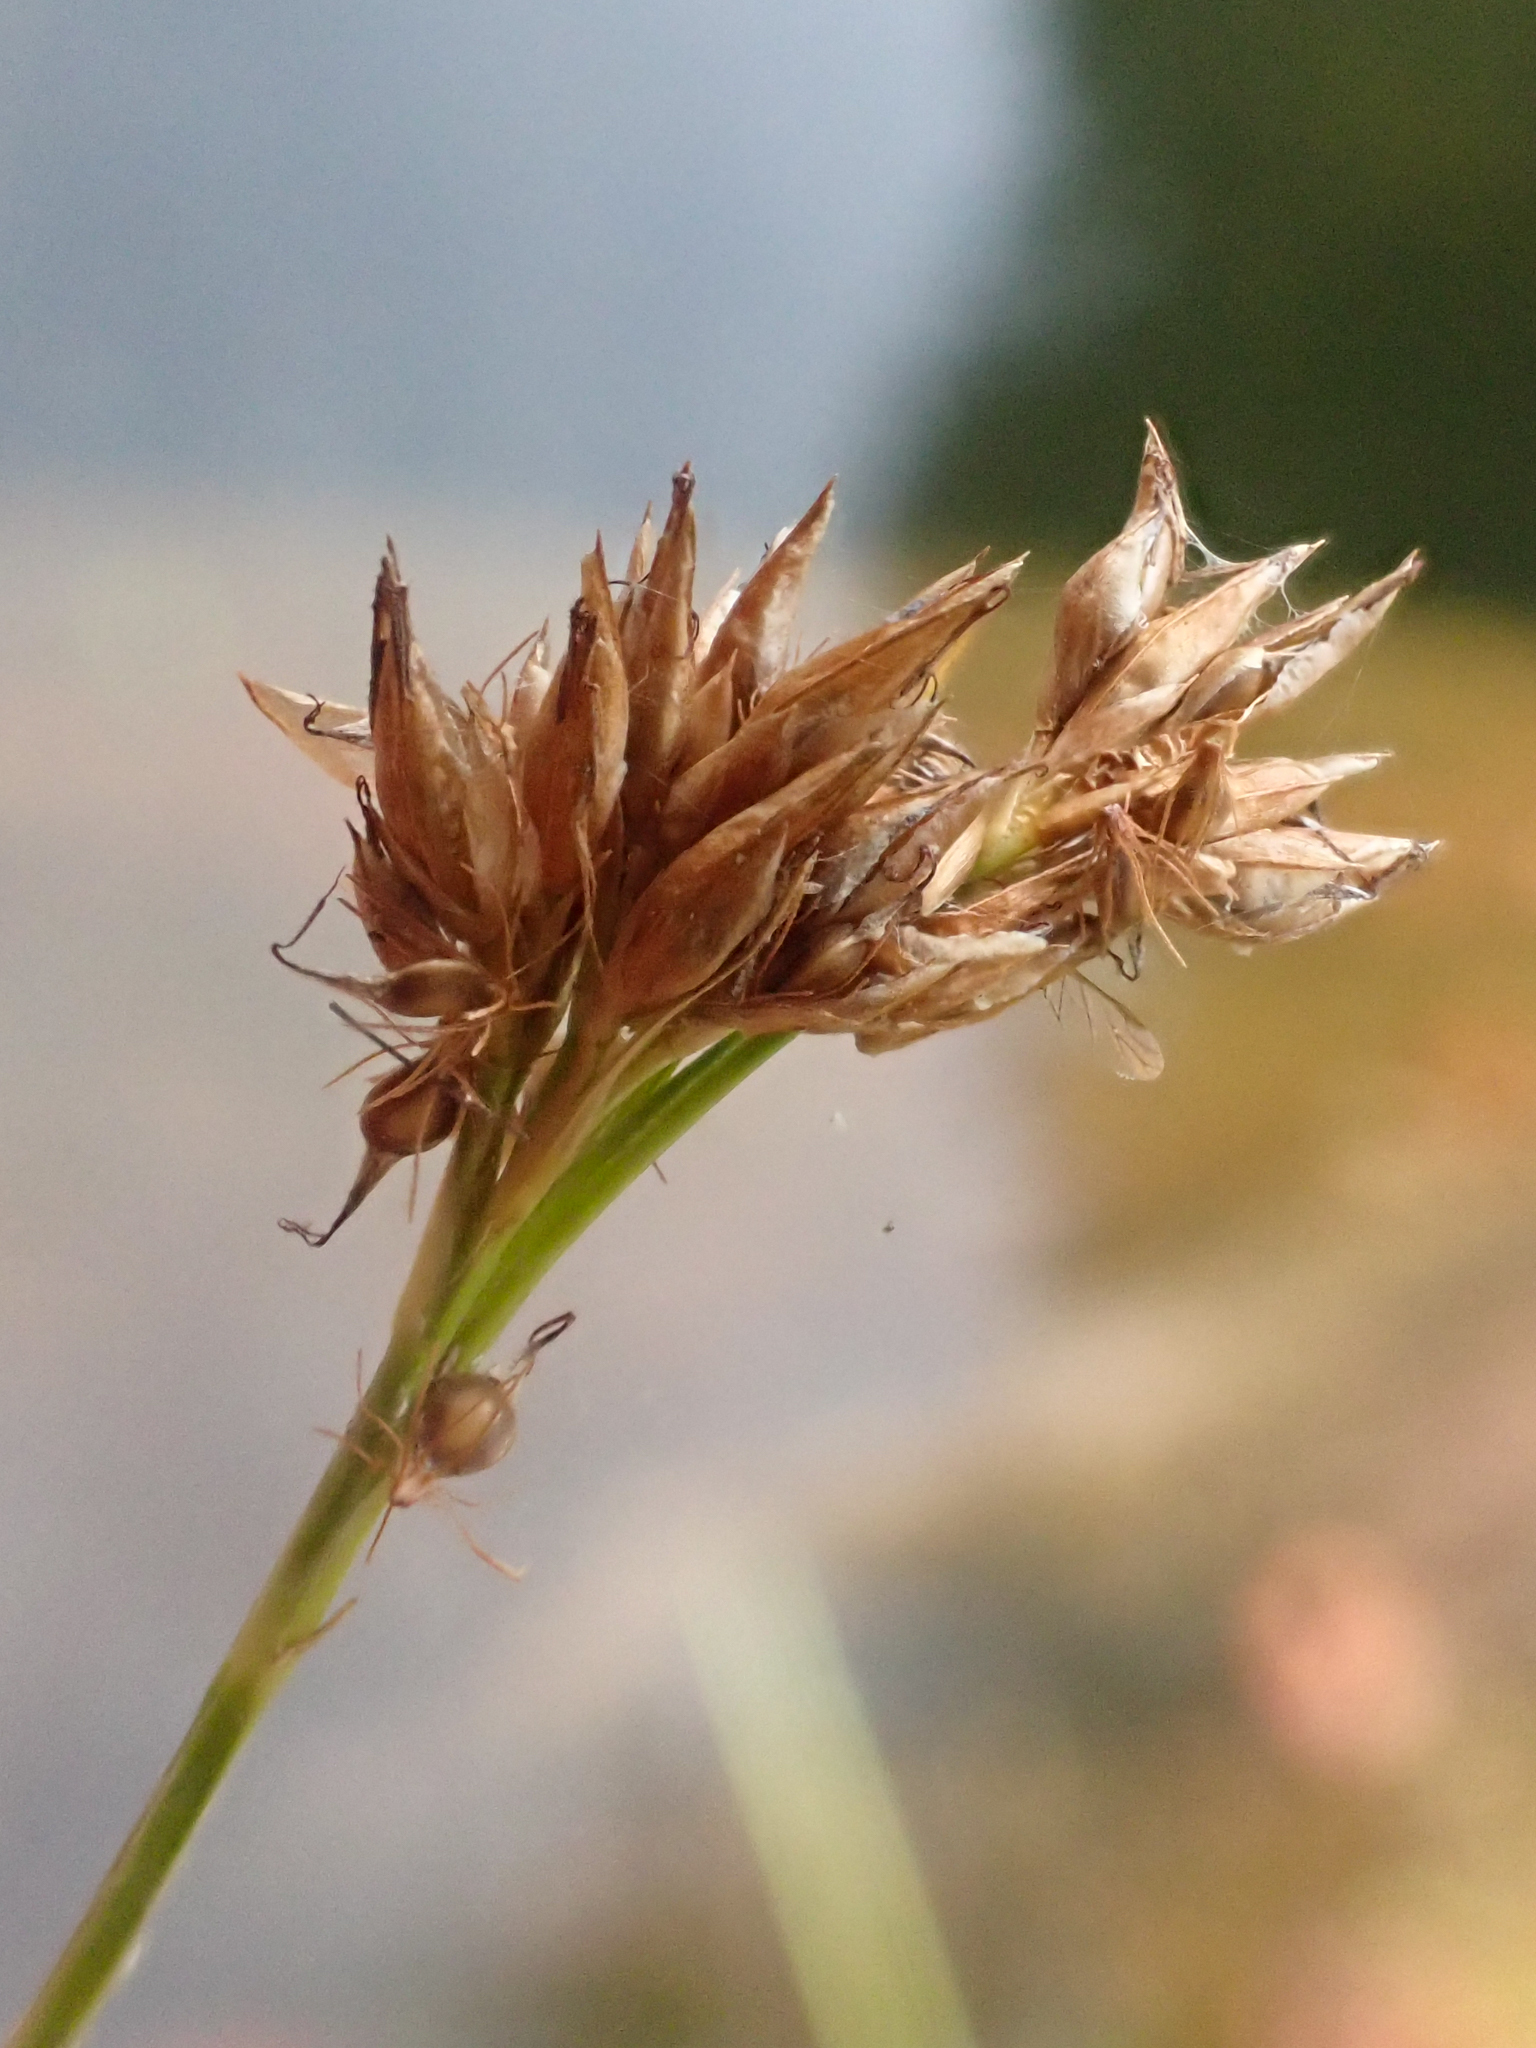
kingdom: Plantae
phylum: Tracheophyta
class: Liliopsida
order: Poales
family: Cyperaceae
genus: Rhynchospora
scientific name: Rhynchospora alba
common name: White beak-sedge
